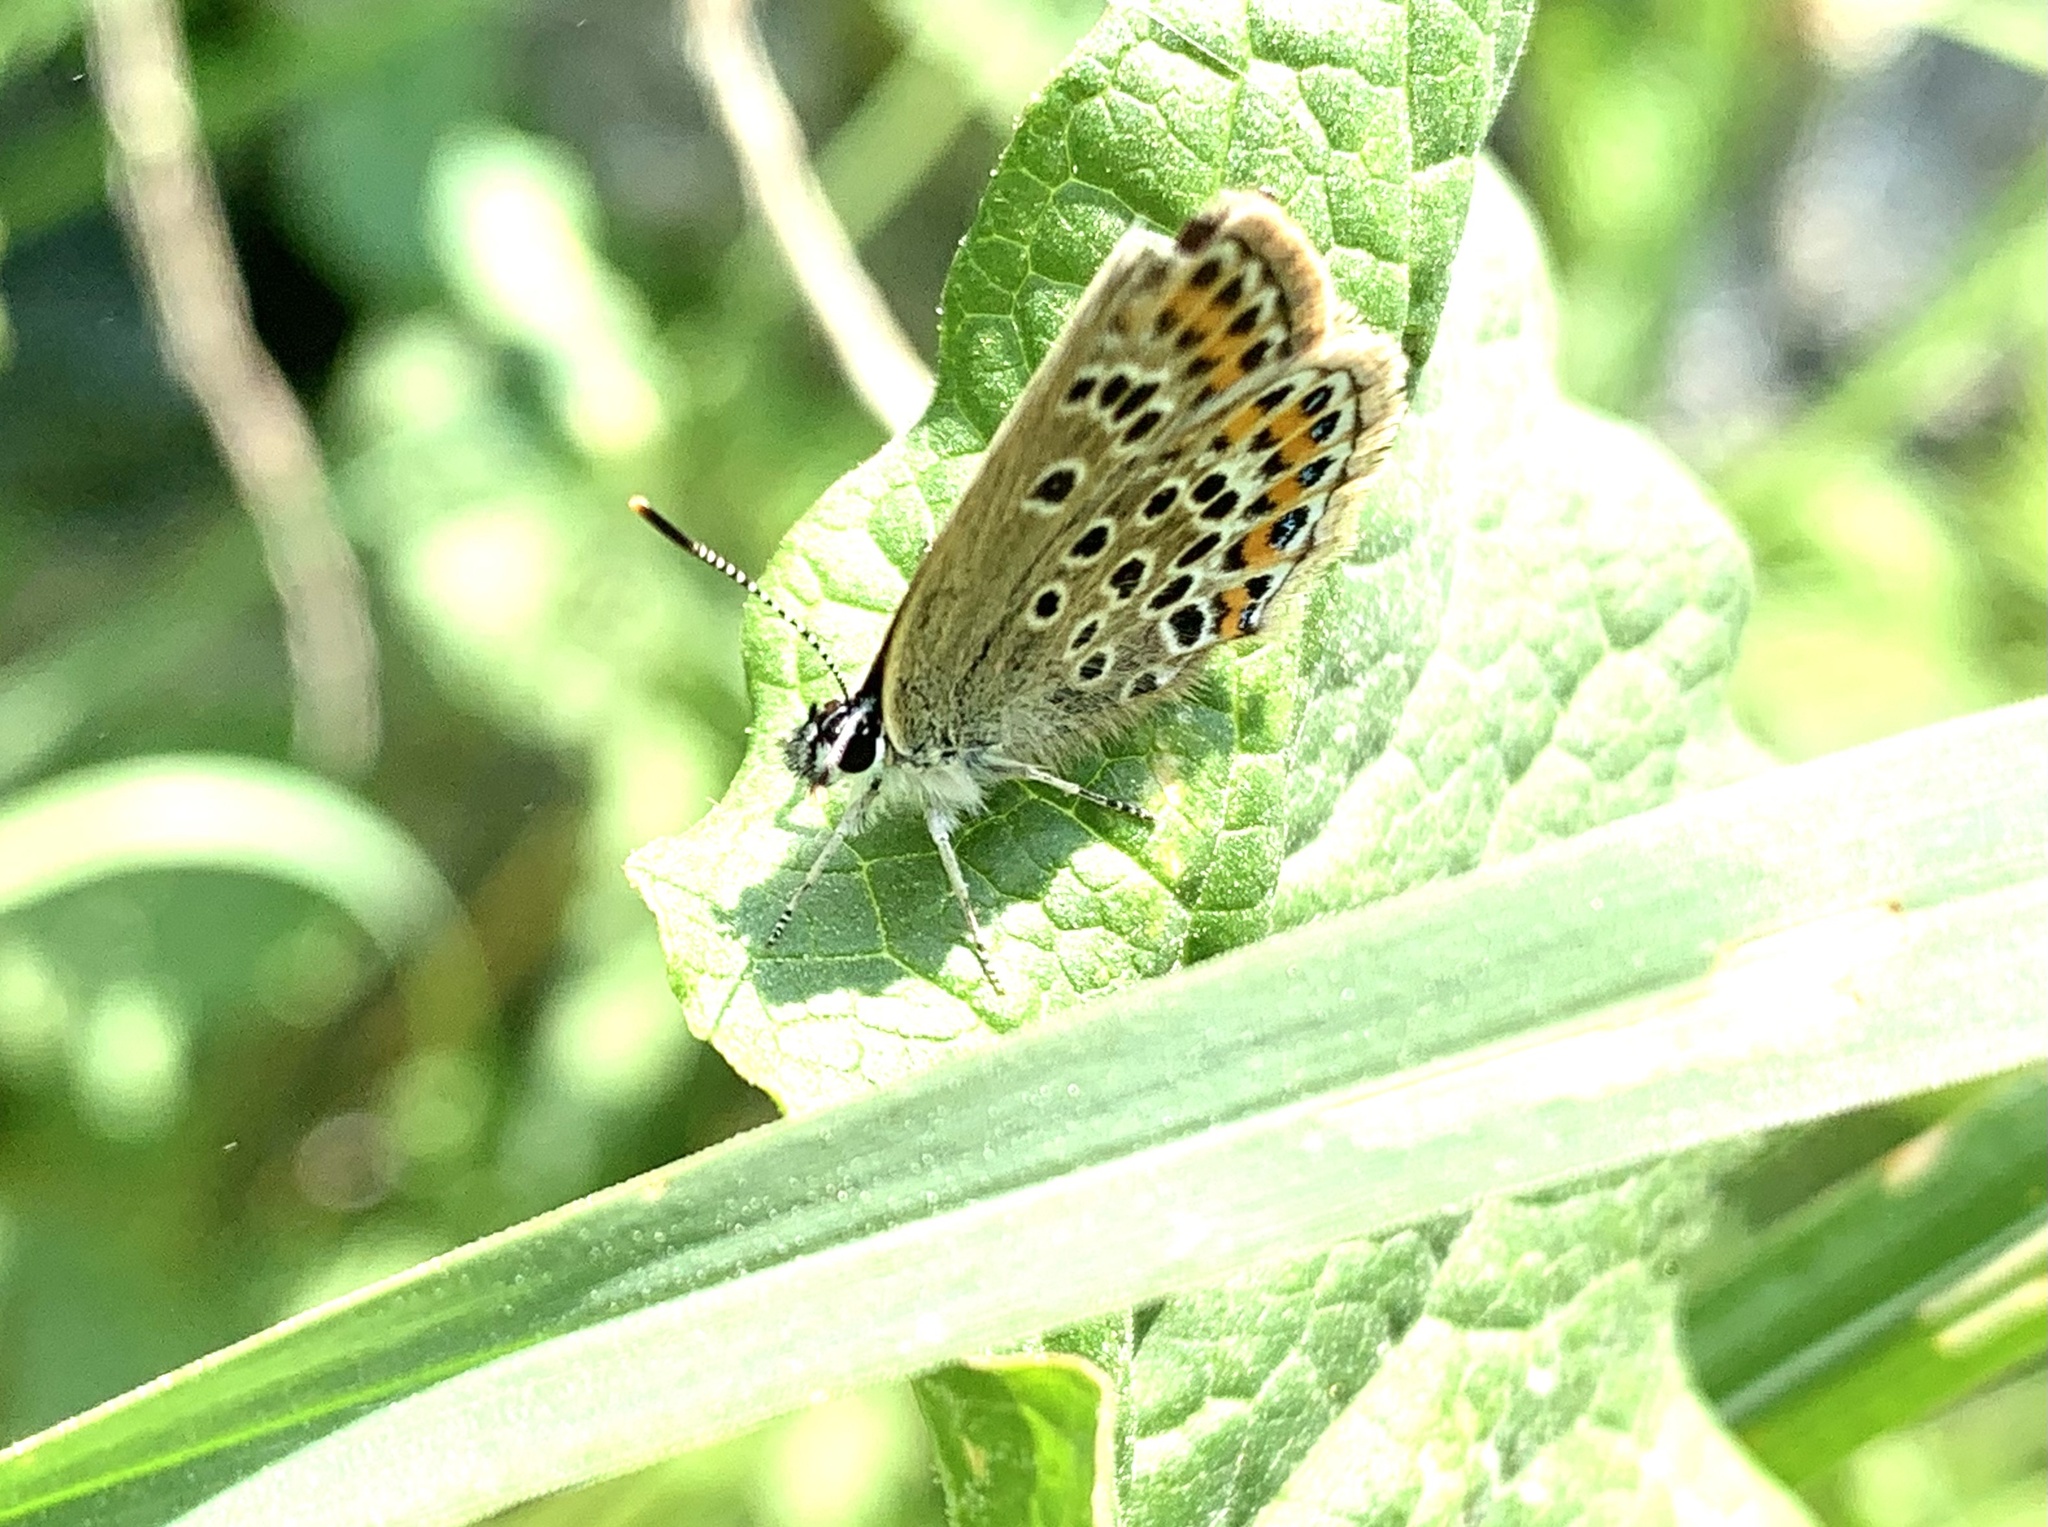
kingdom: Animalia
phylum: Arthropoda
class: Insecta
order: Lepidoptera
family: Lycaenidae
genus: Plebejus
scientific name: Plebejus argus
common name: Silver-studded blue
